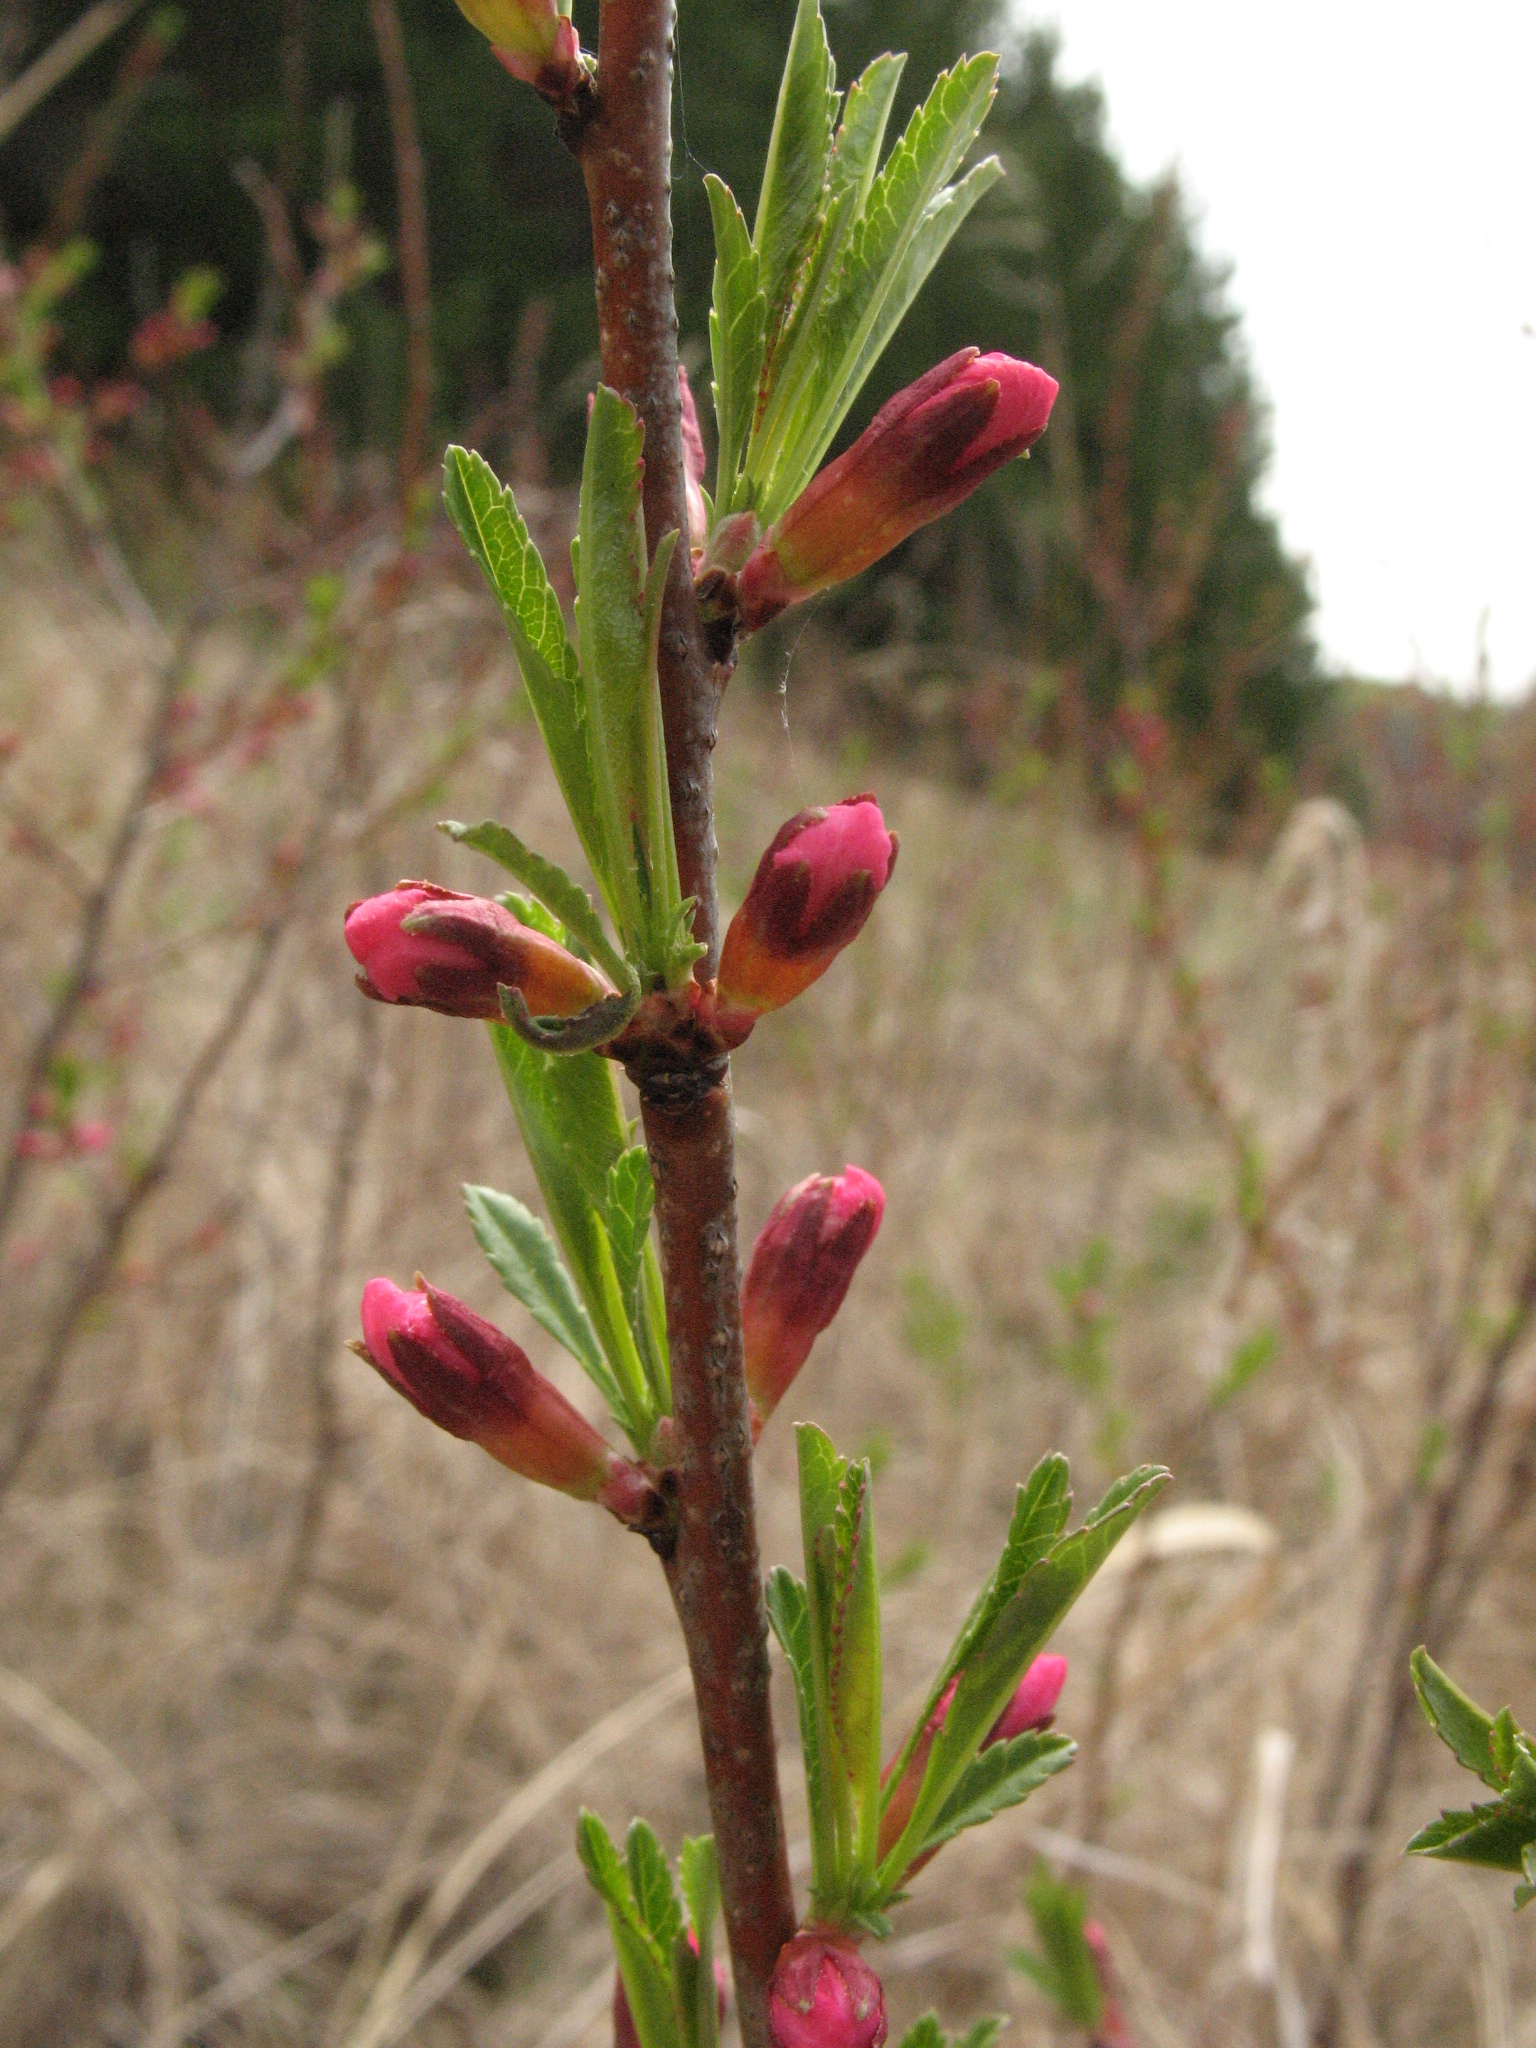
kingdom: Plantae
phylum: Tracheophyta
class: Magnoliopsida
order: Rosales
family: Rosaceae
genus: Prunus
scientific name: Prunus tenella
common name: Dwarf russian almond
